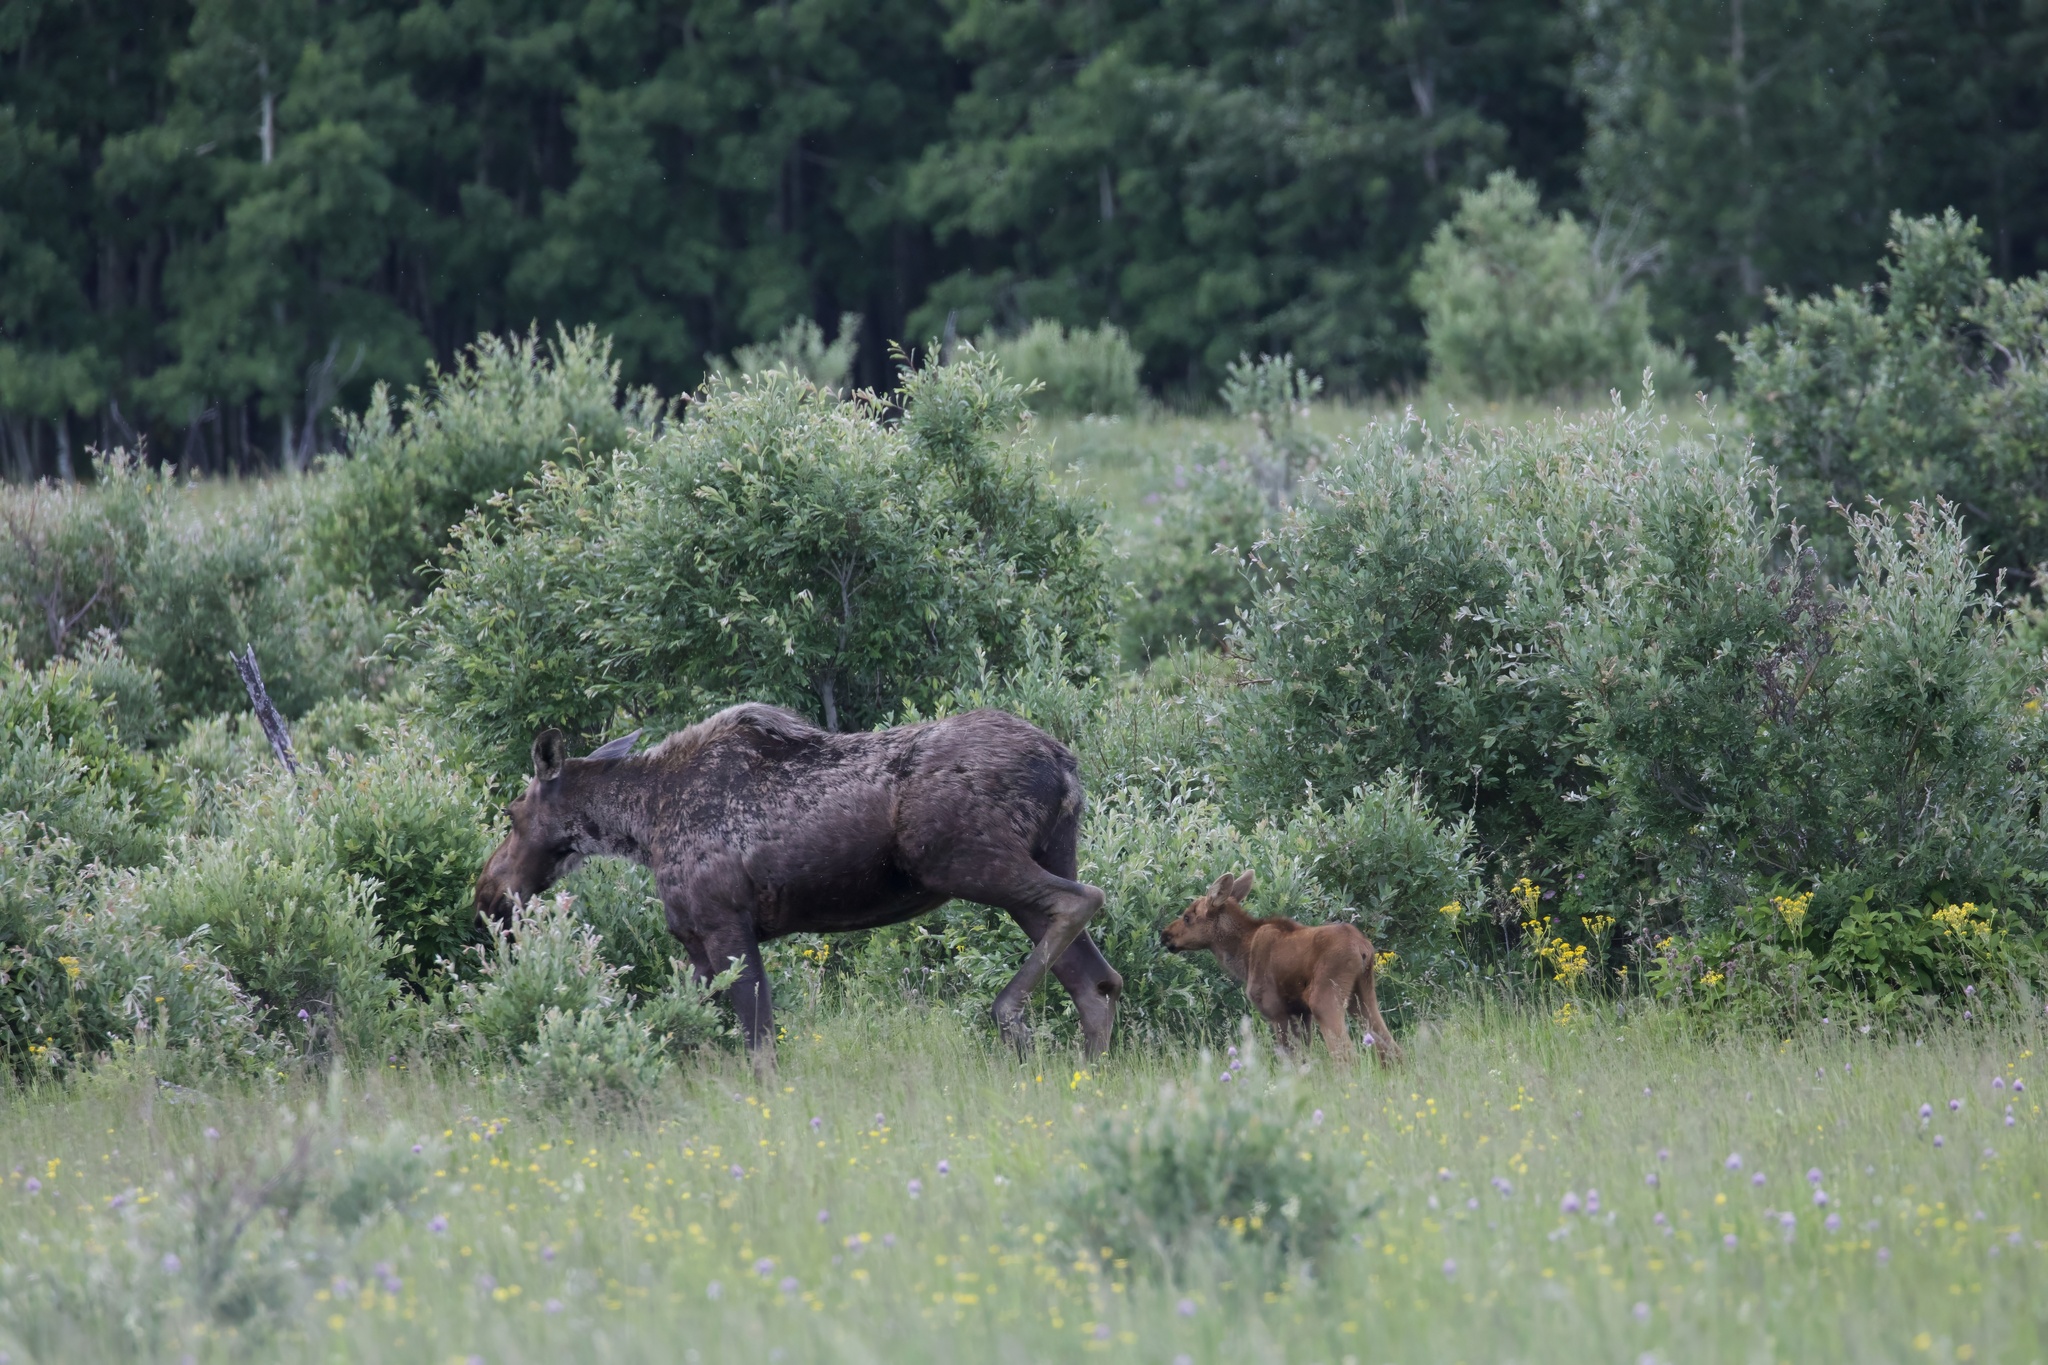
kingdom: Animalia
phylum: Chordata
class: Mammalia
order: Artiodactyla
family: Cervidae
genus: Alces
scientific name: Alces alces
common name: Moose
